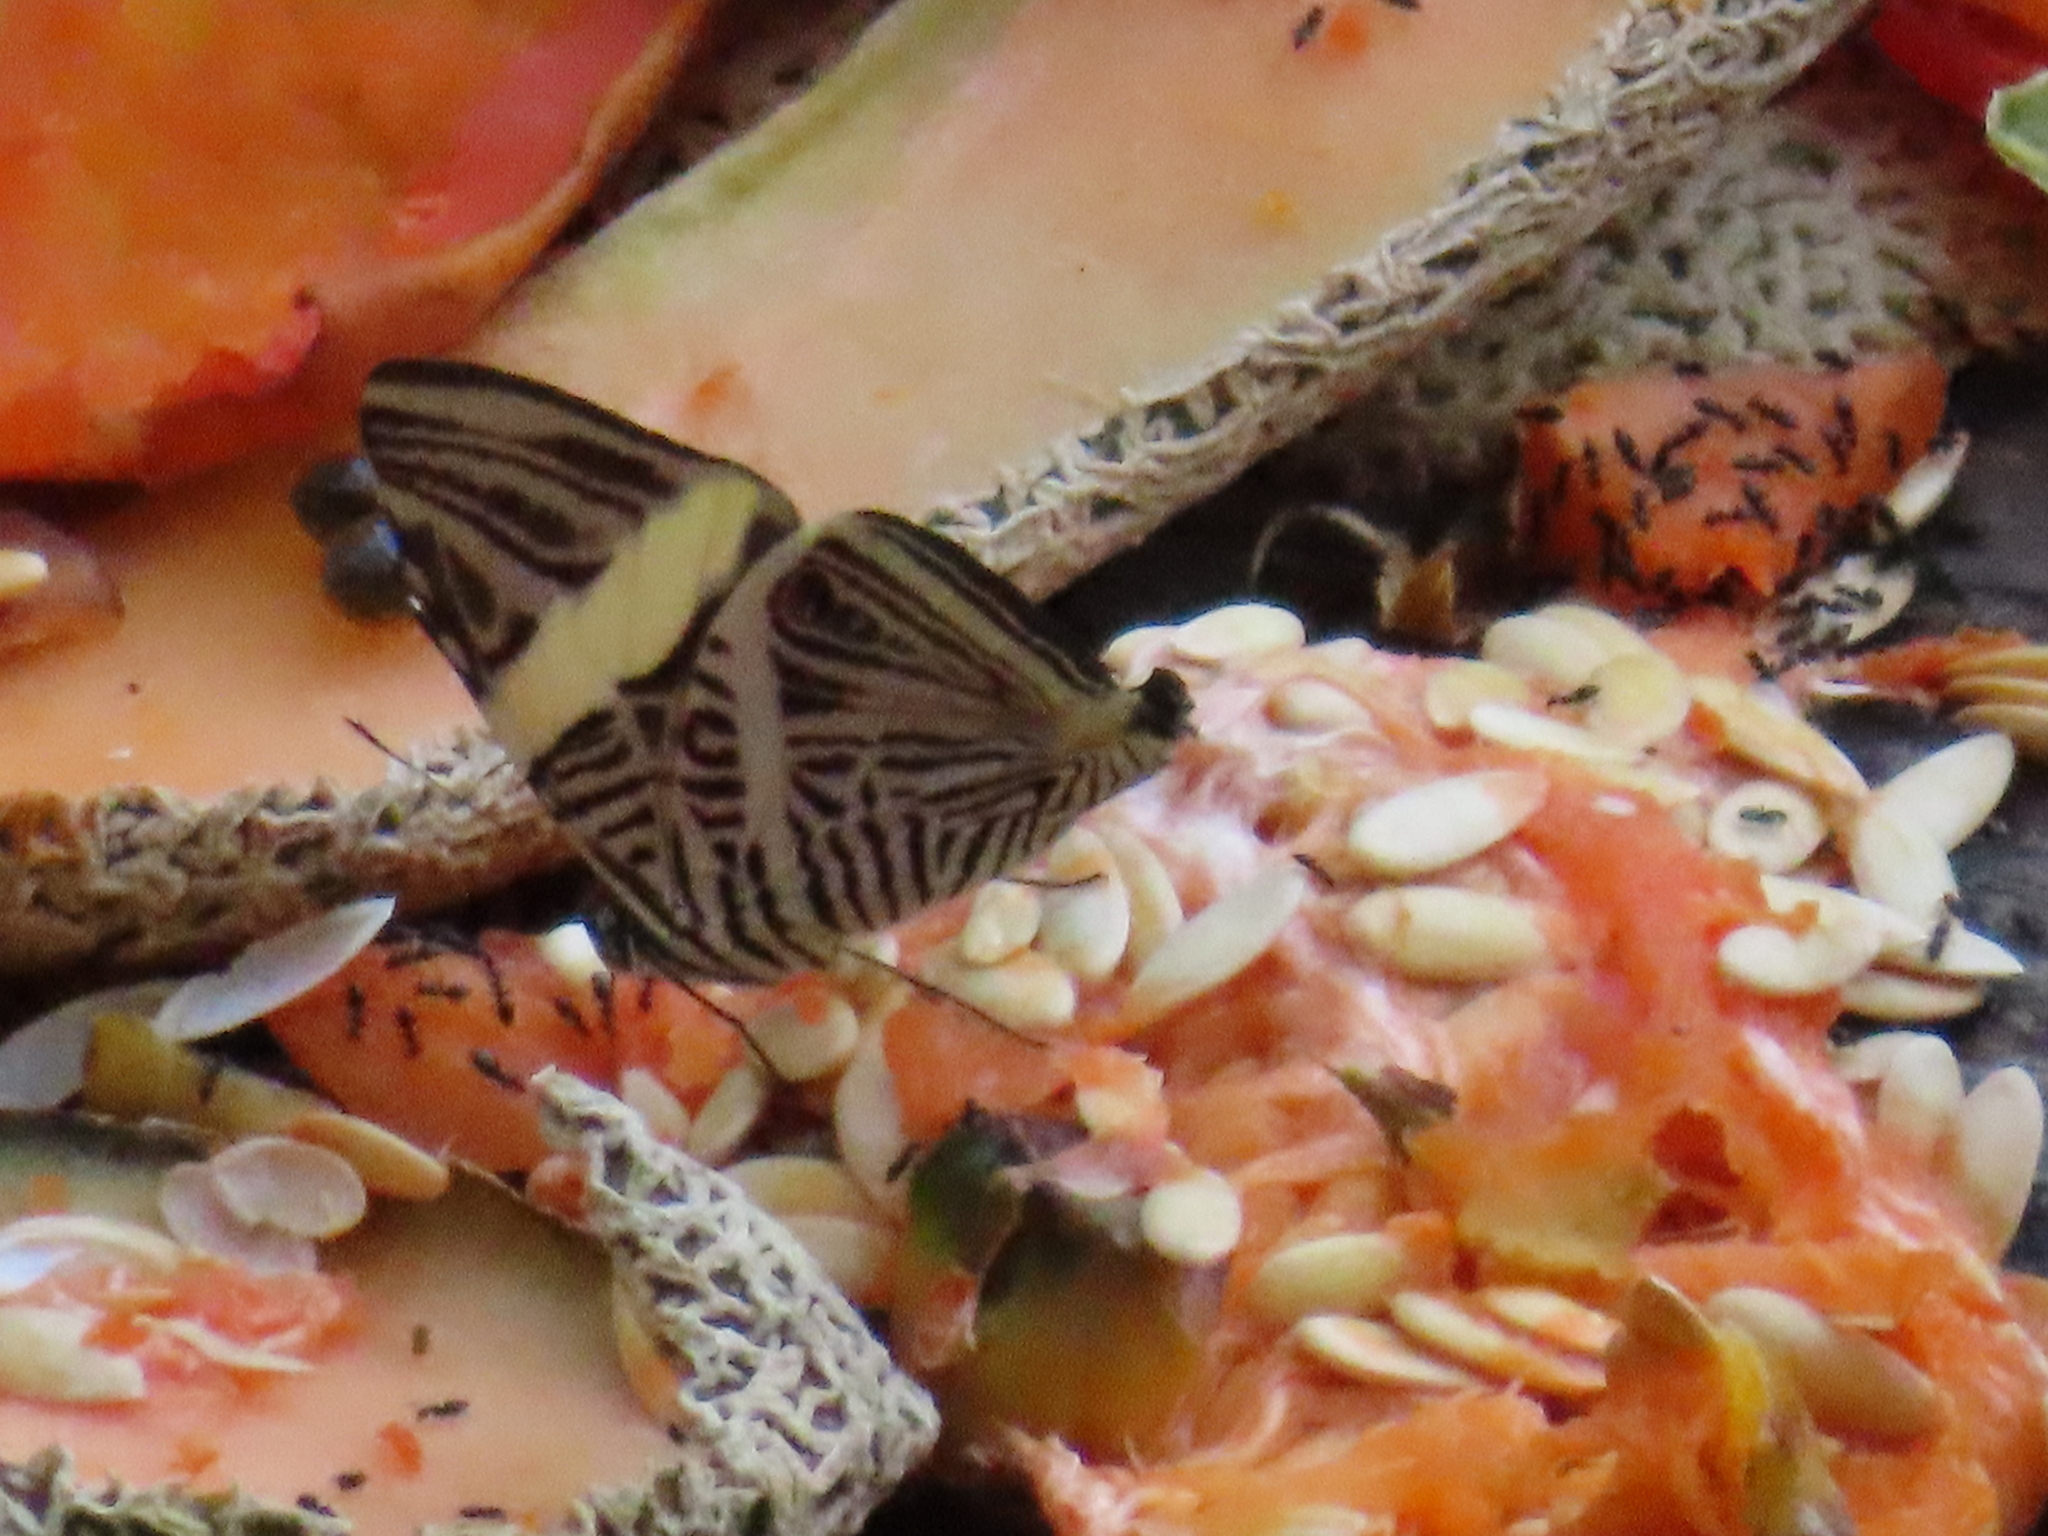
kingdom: Animalia
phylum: Arthropoda
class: Insecta
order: Lepidoptera
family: Nymphalidae
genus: Colobura
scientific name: Colobura dirce
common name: Dirce beauty
